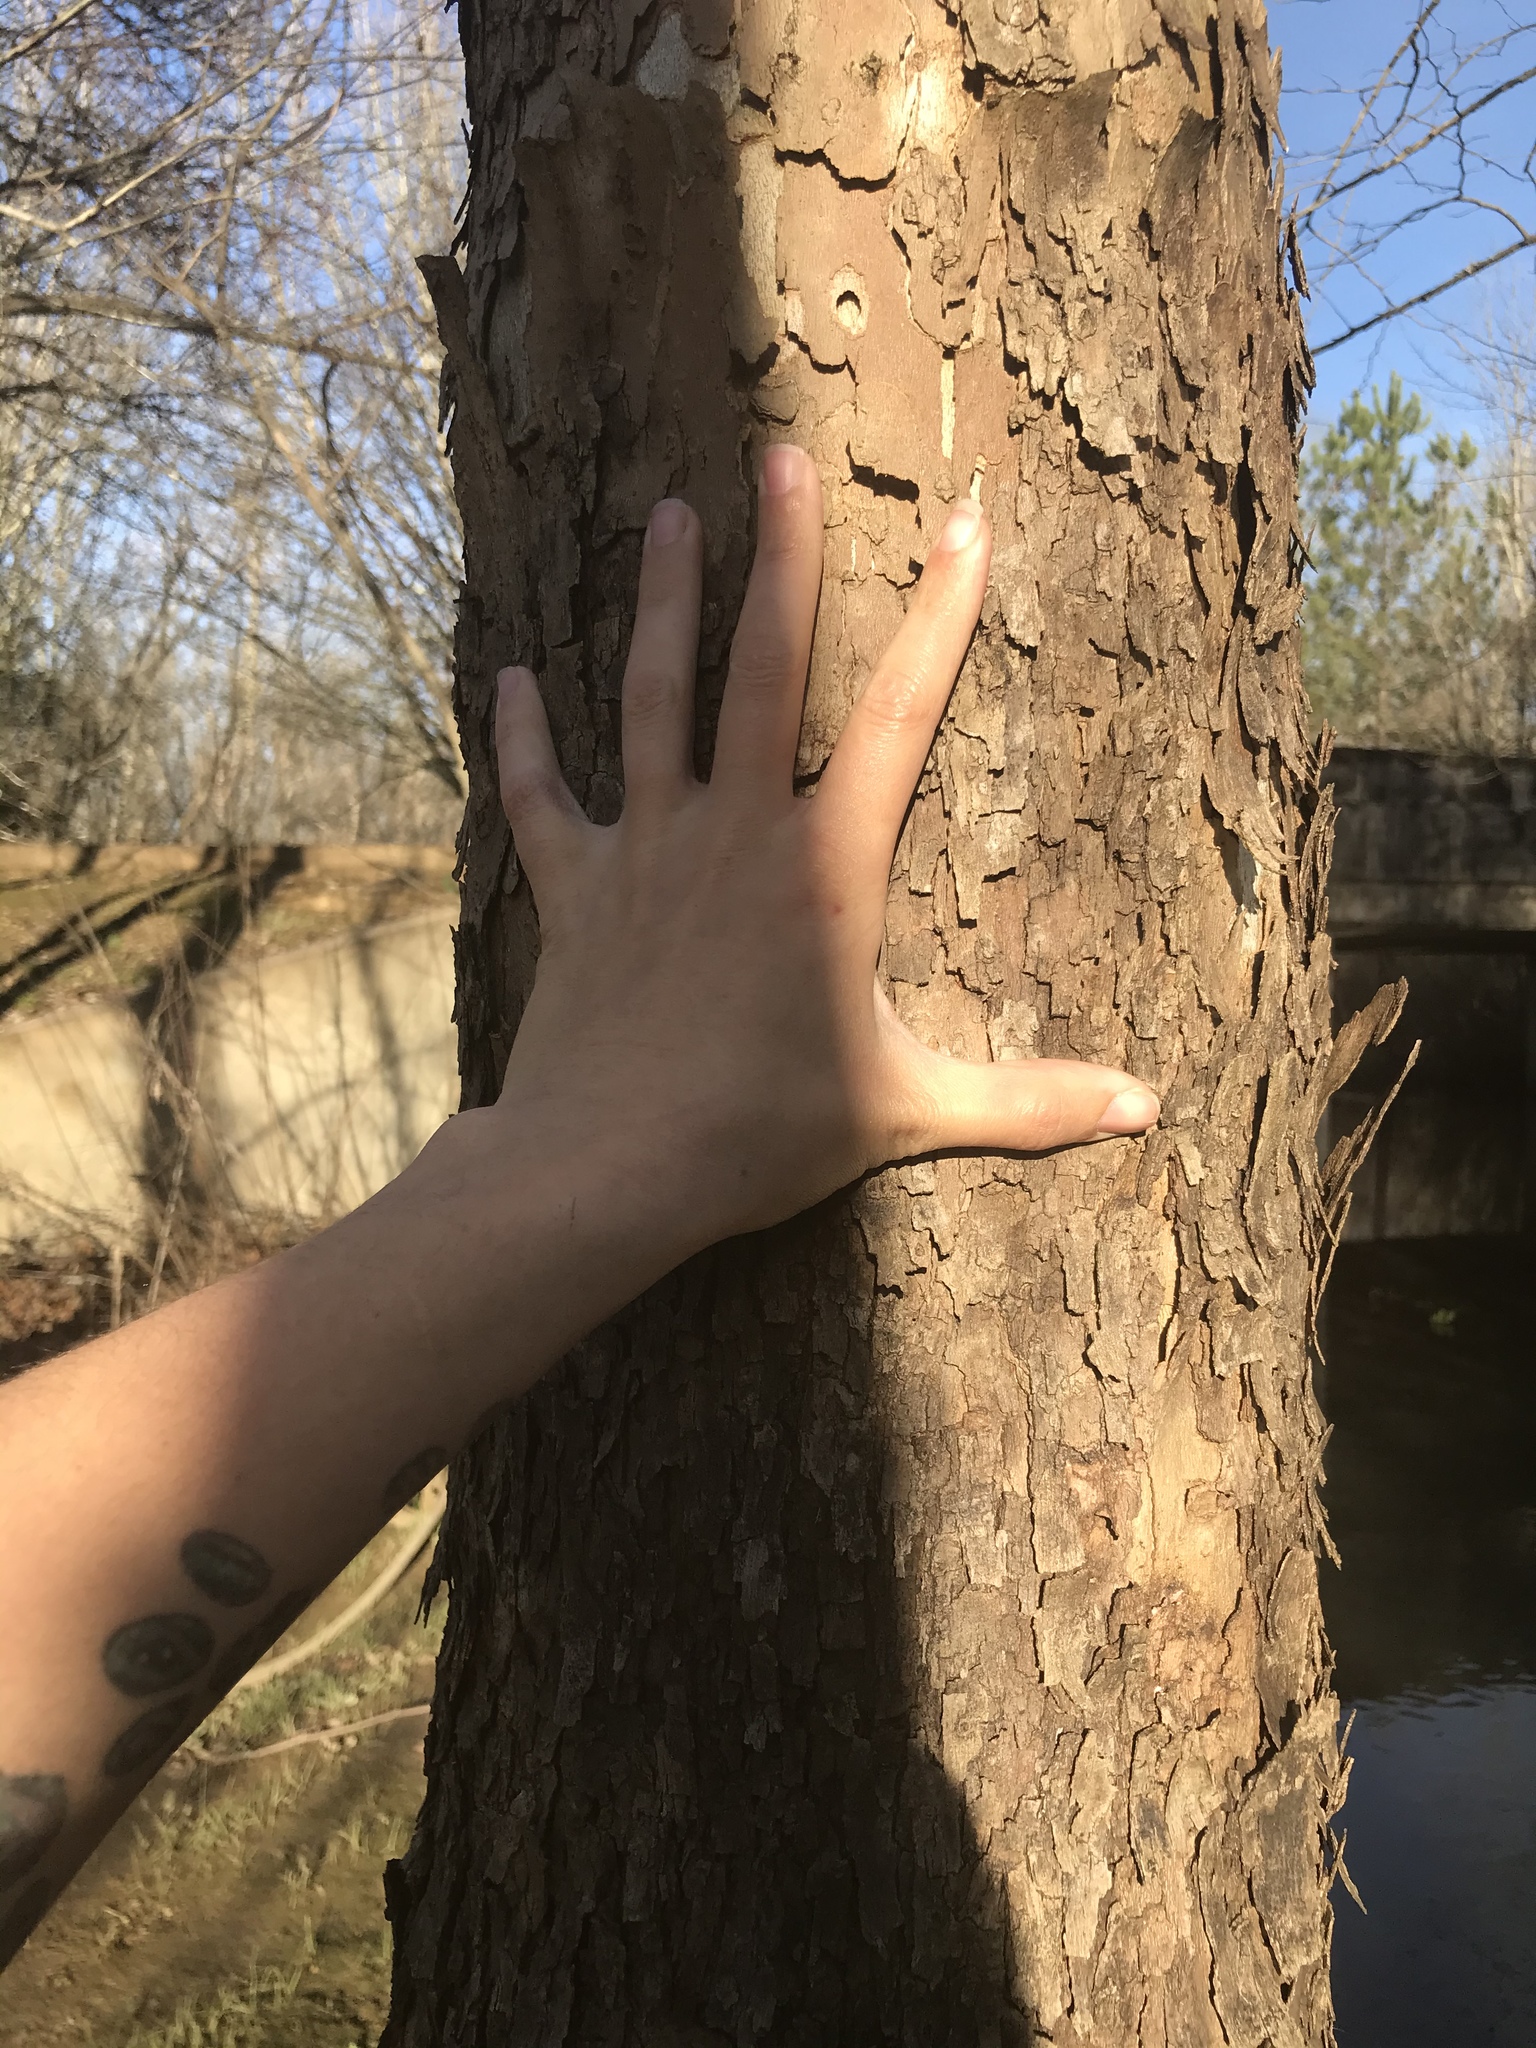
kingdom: Plantae
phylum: Tracheophyta
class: Magnoliopsida
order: Proteales
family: Platanaceae
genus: Platanus
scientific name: Platanus occidentalis
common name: American sycamore
